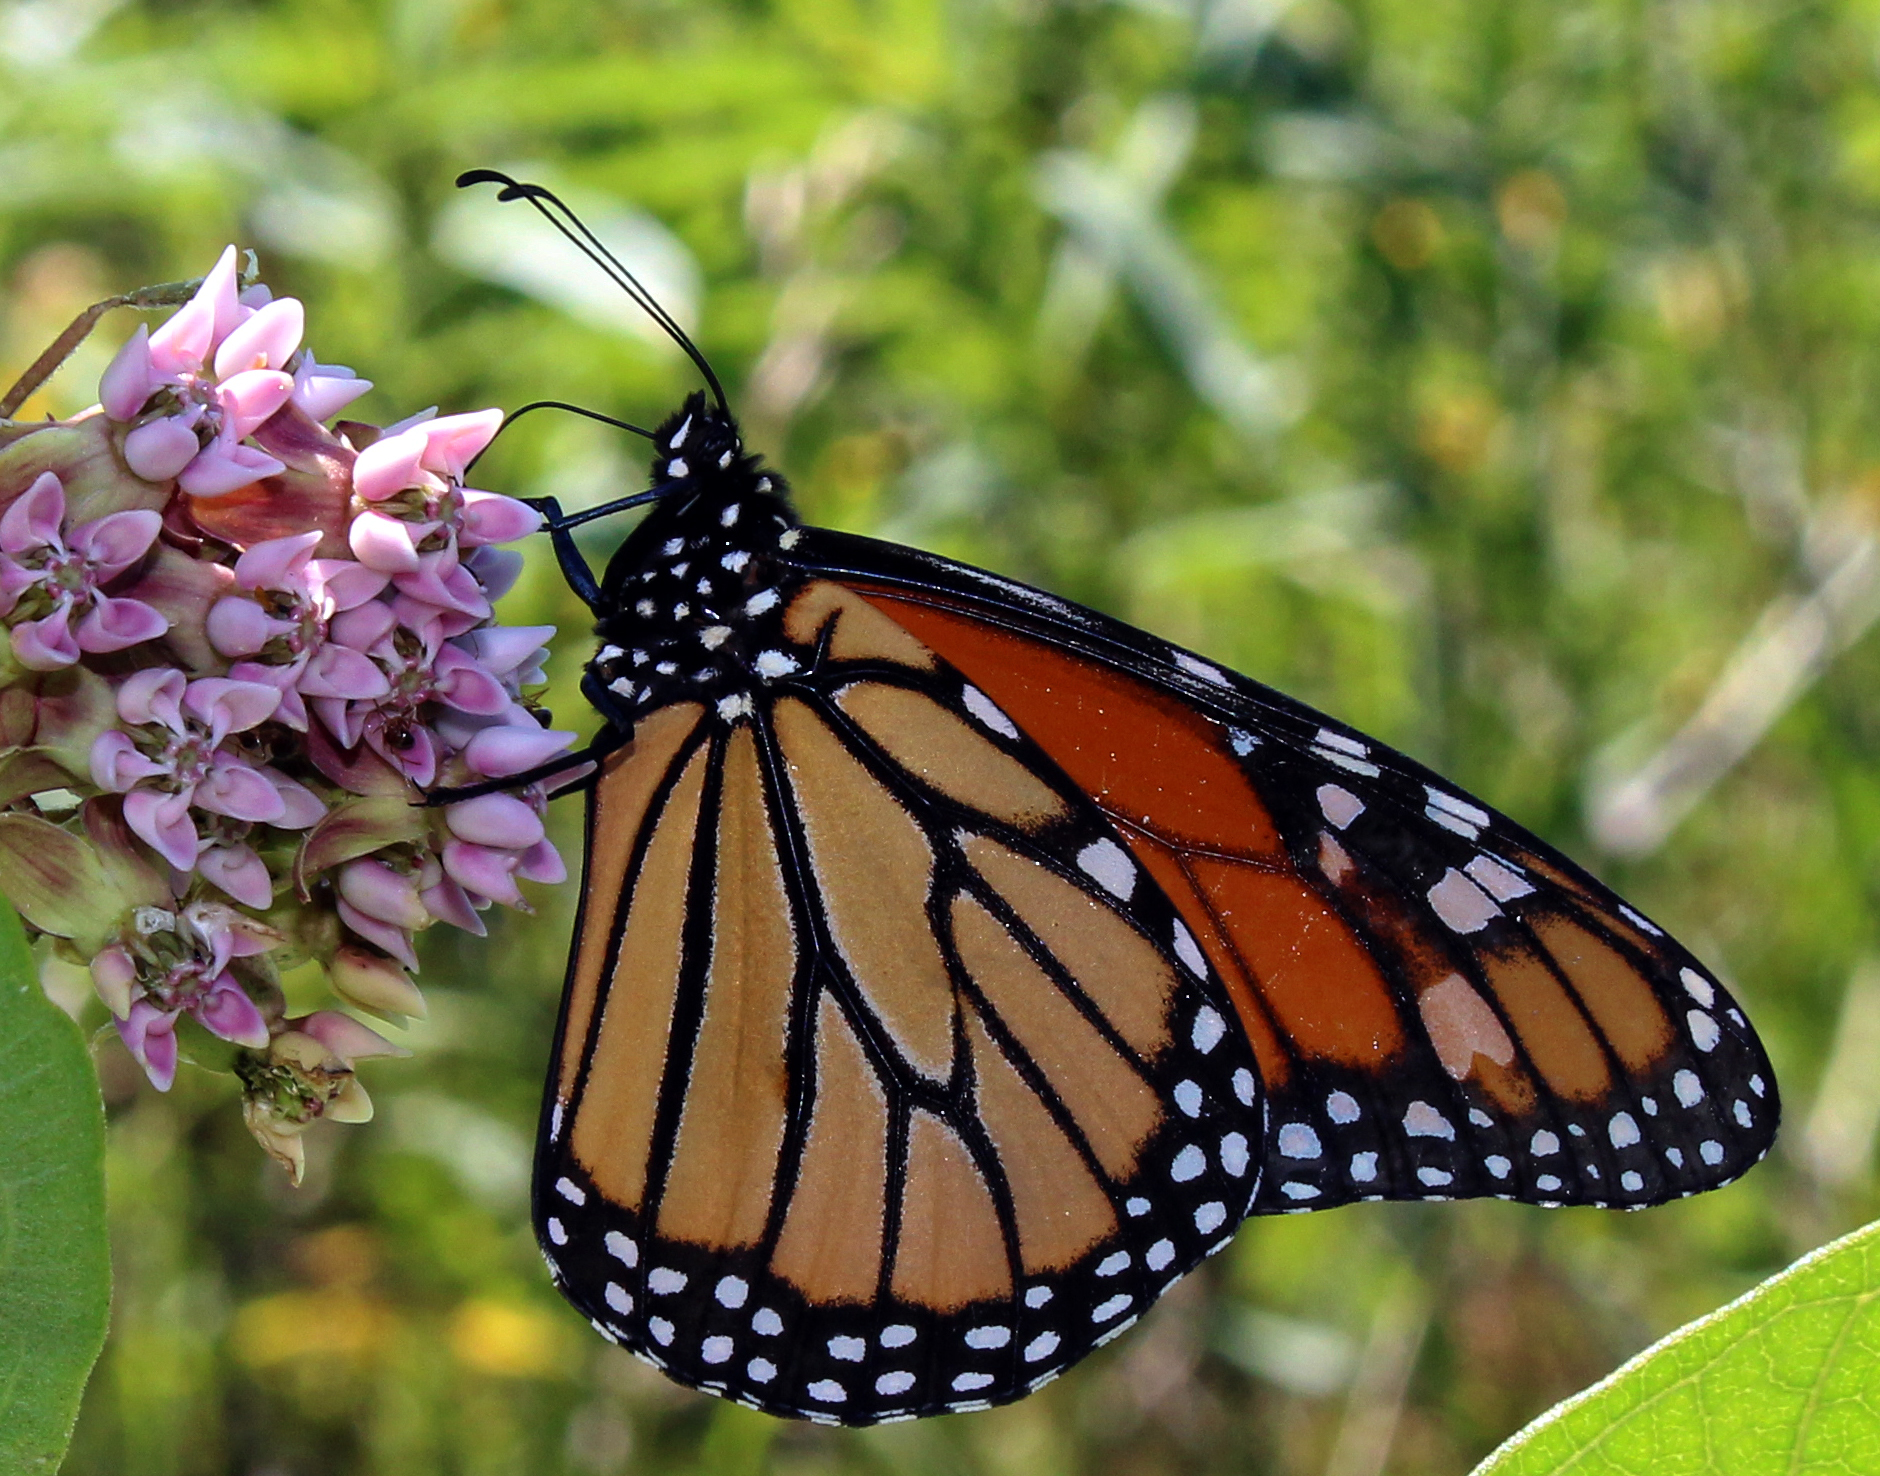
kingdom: Animalia
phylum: Arthropoda
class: Insecta
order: Lepidoptera
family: Nymphalidae
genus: Danaus
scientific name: Danaus plexippus
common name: Monarch
